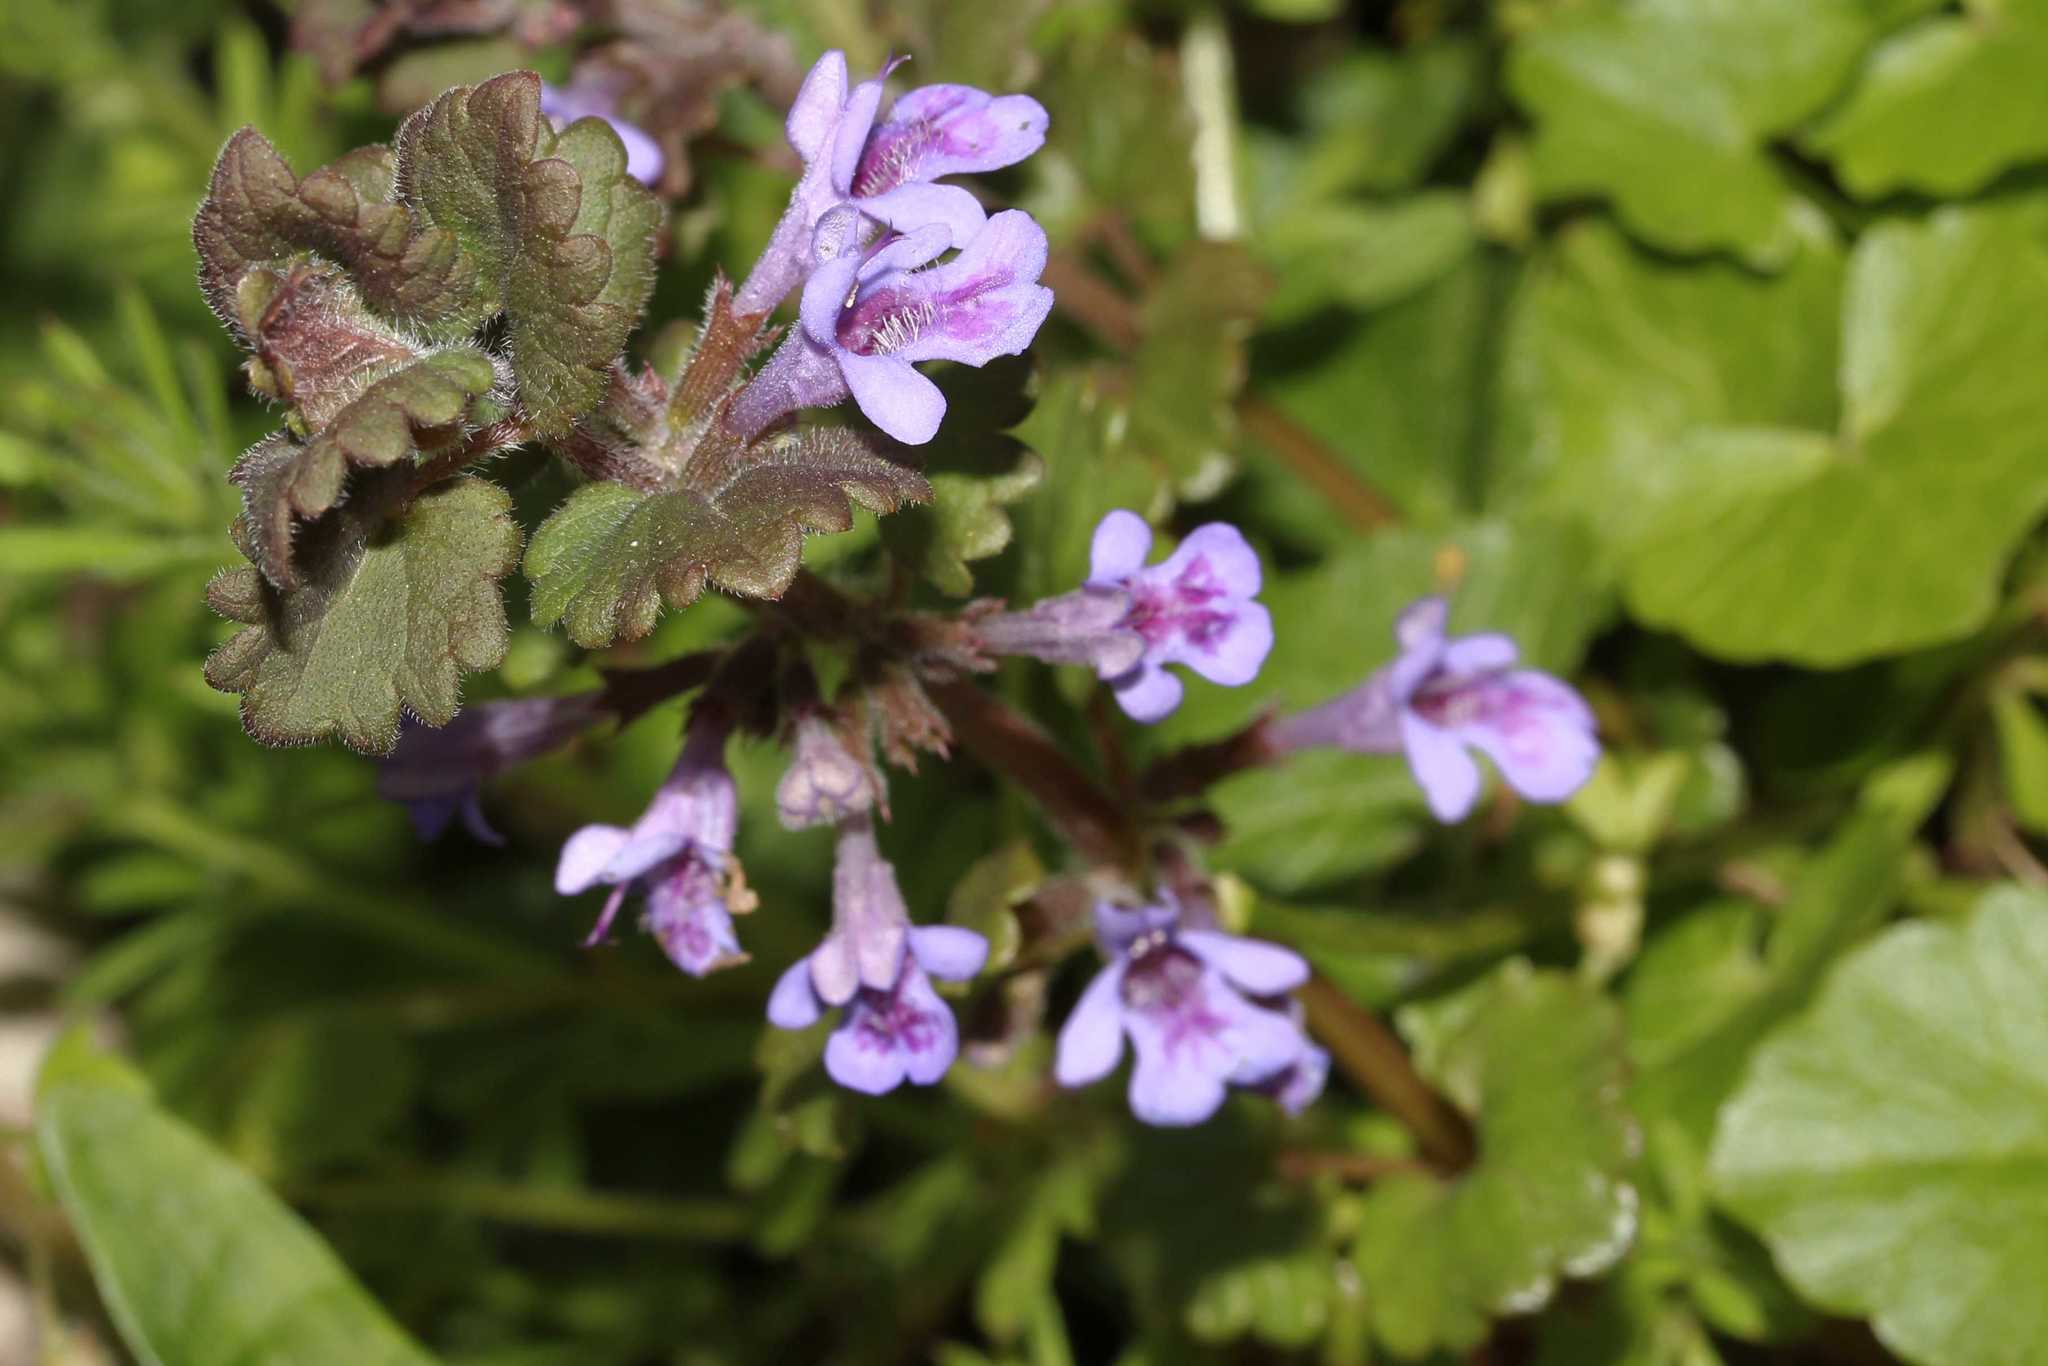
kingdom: Plantae
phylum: Tracheophyta
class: Magnoliopsida
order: Lamiales
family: Lamiaceae
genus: Glechoma
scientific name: Glechoma hederacea
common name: Ground ivy
